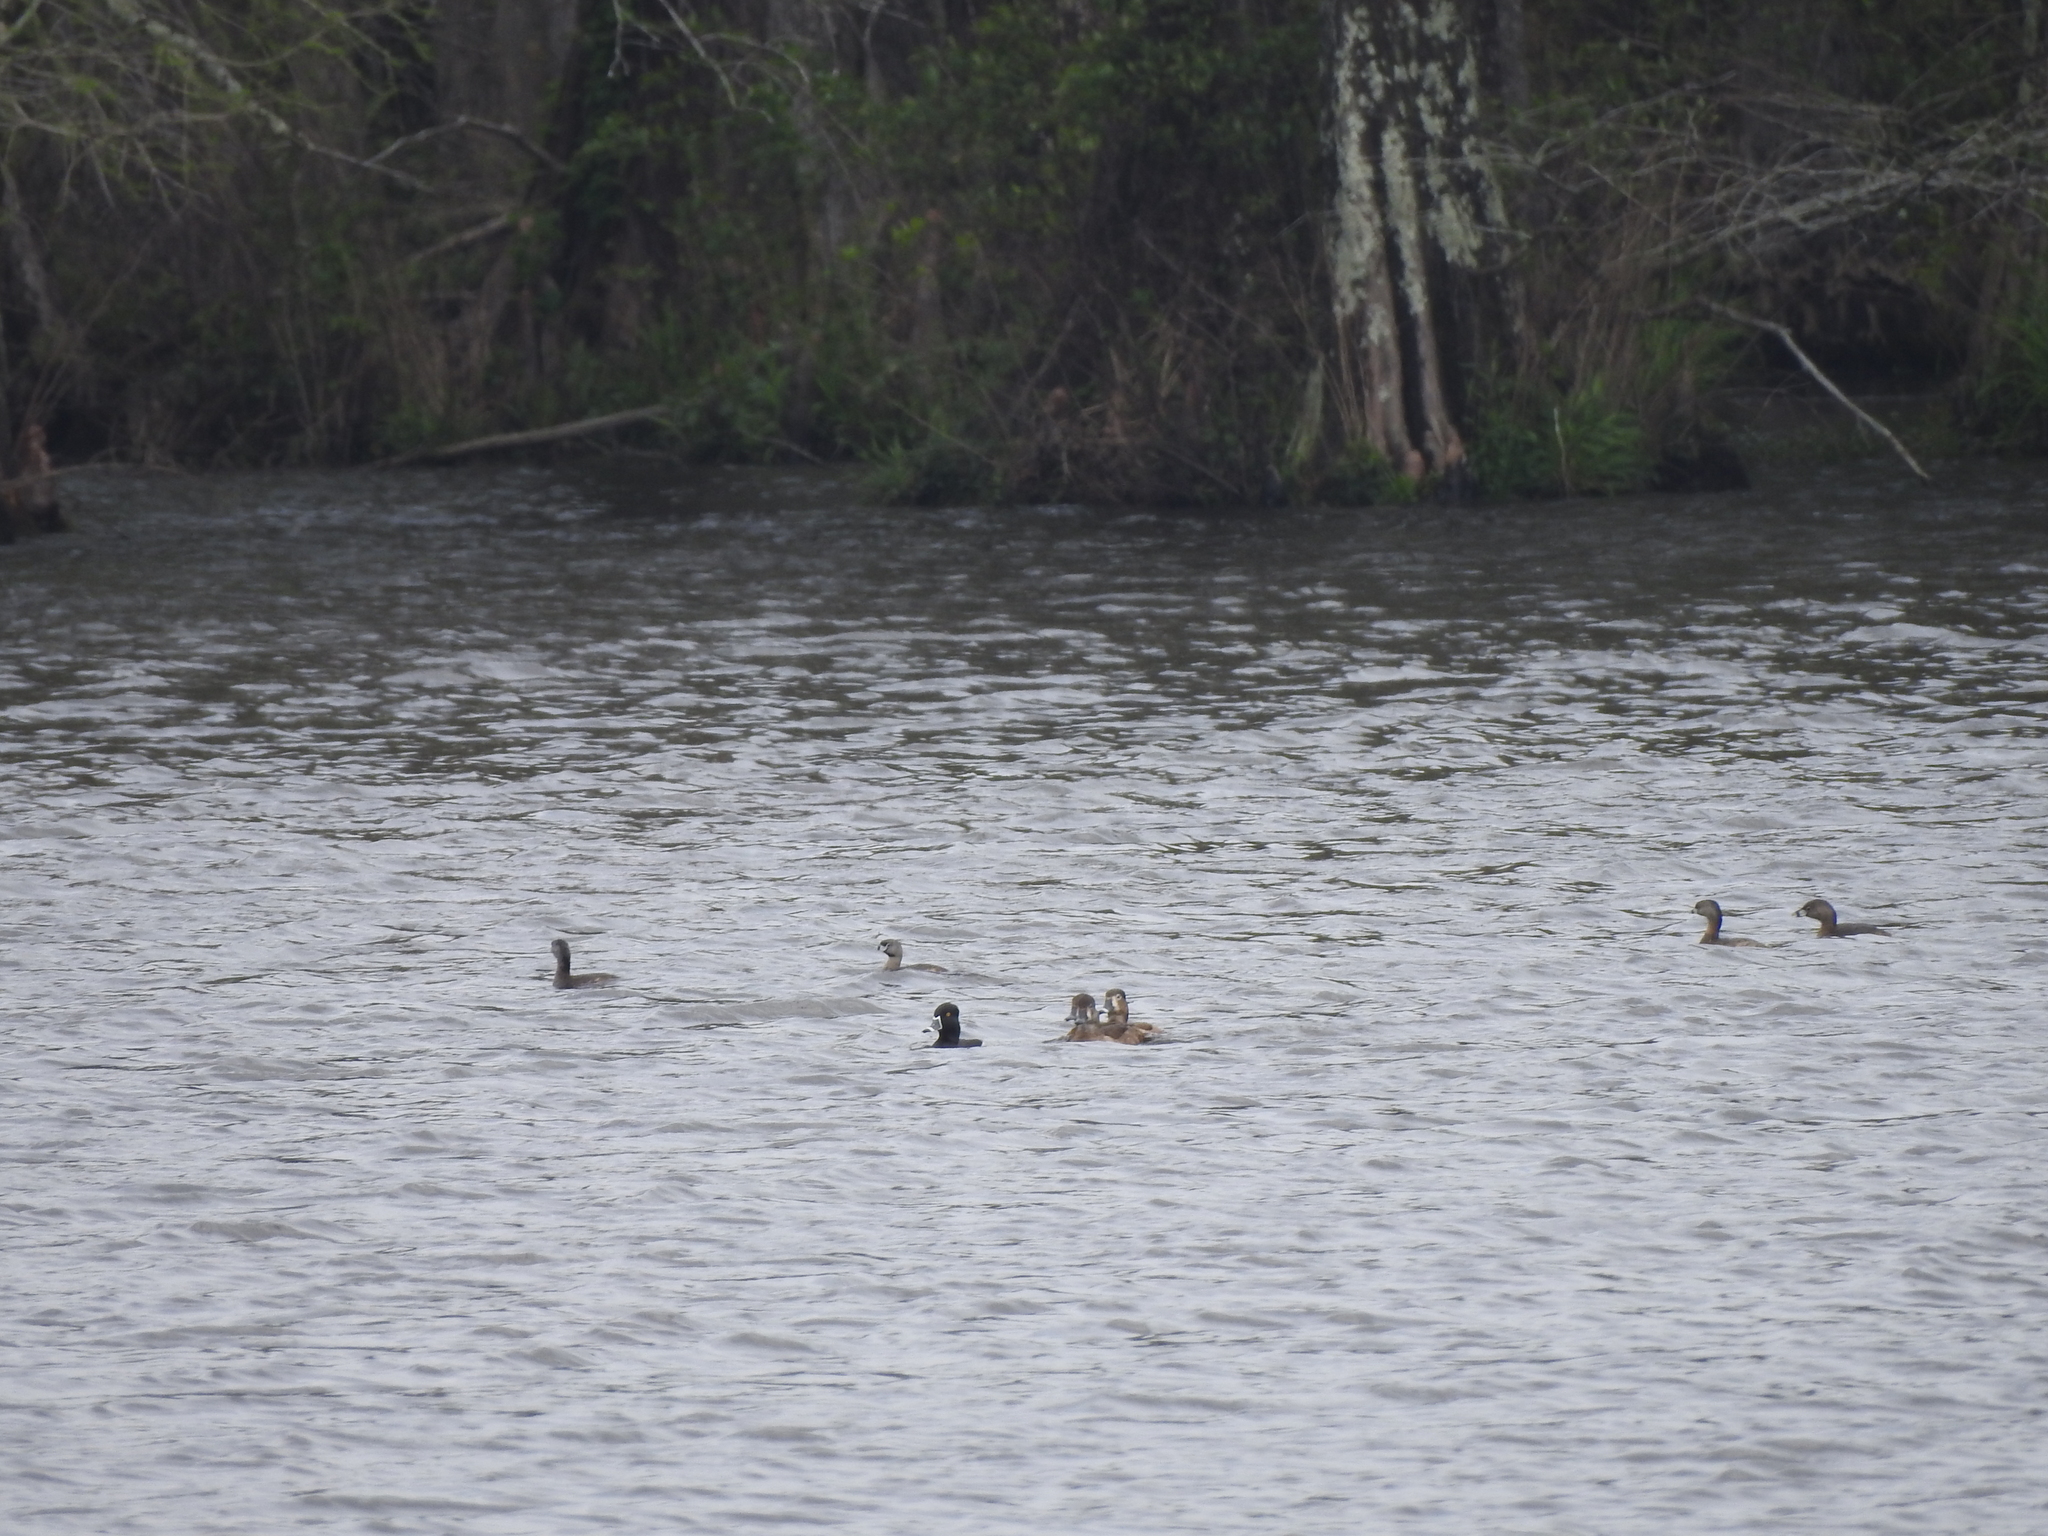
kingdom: Animalia
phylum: Chordata
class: Aves
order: Anseriformes
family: Anatidae
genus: Aythya
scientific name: Aythya collaris
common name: Ring-necked duck
